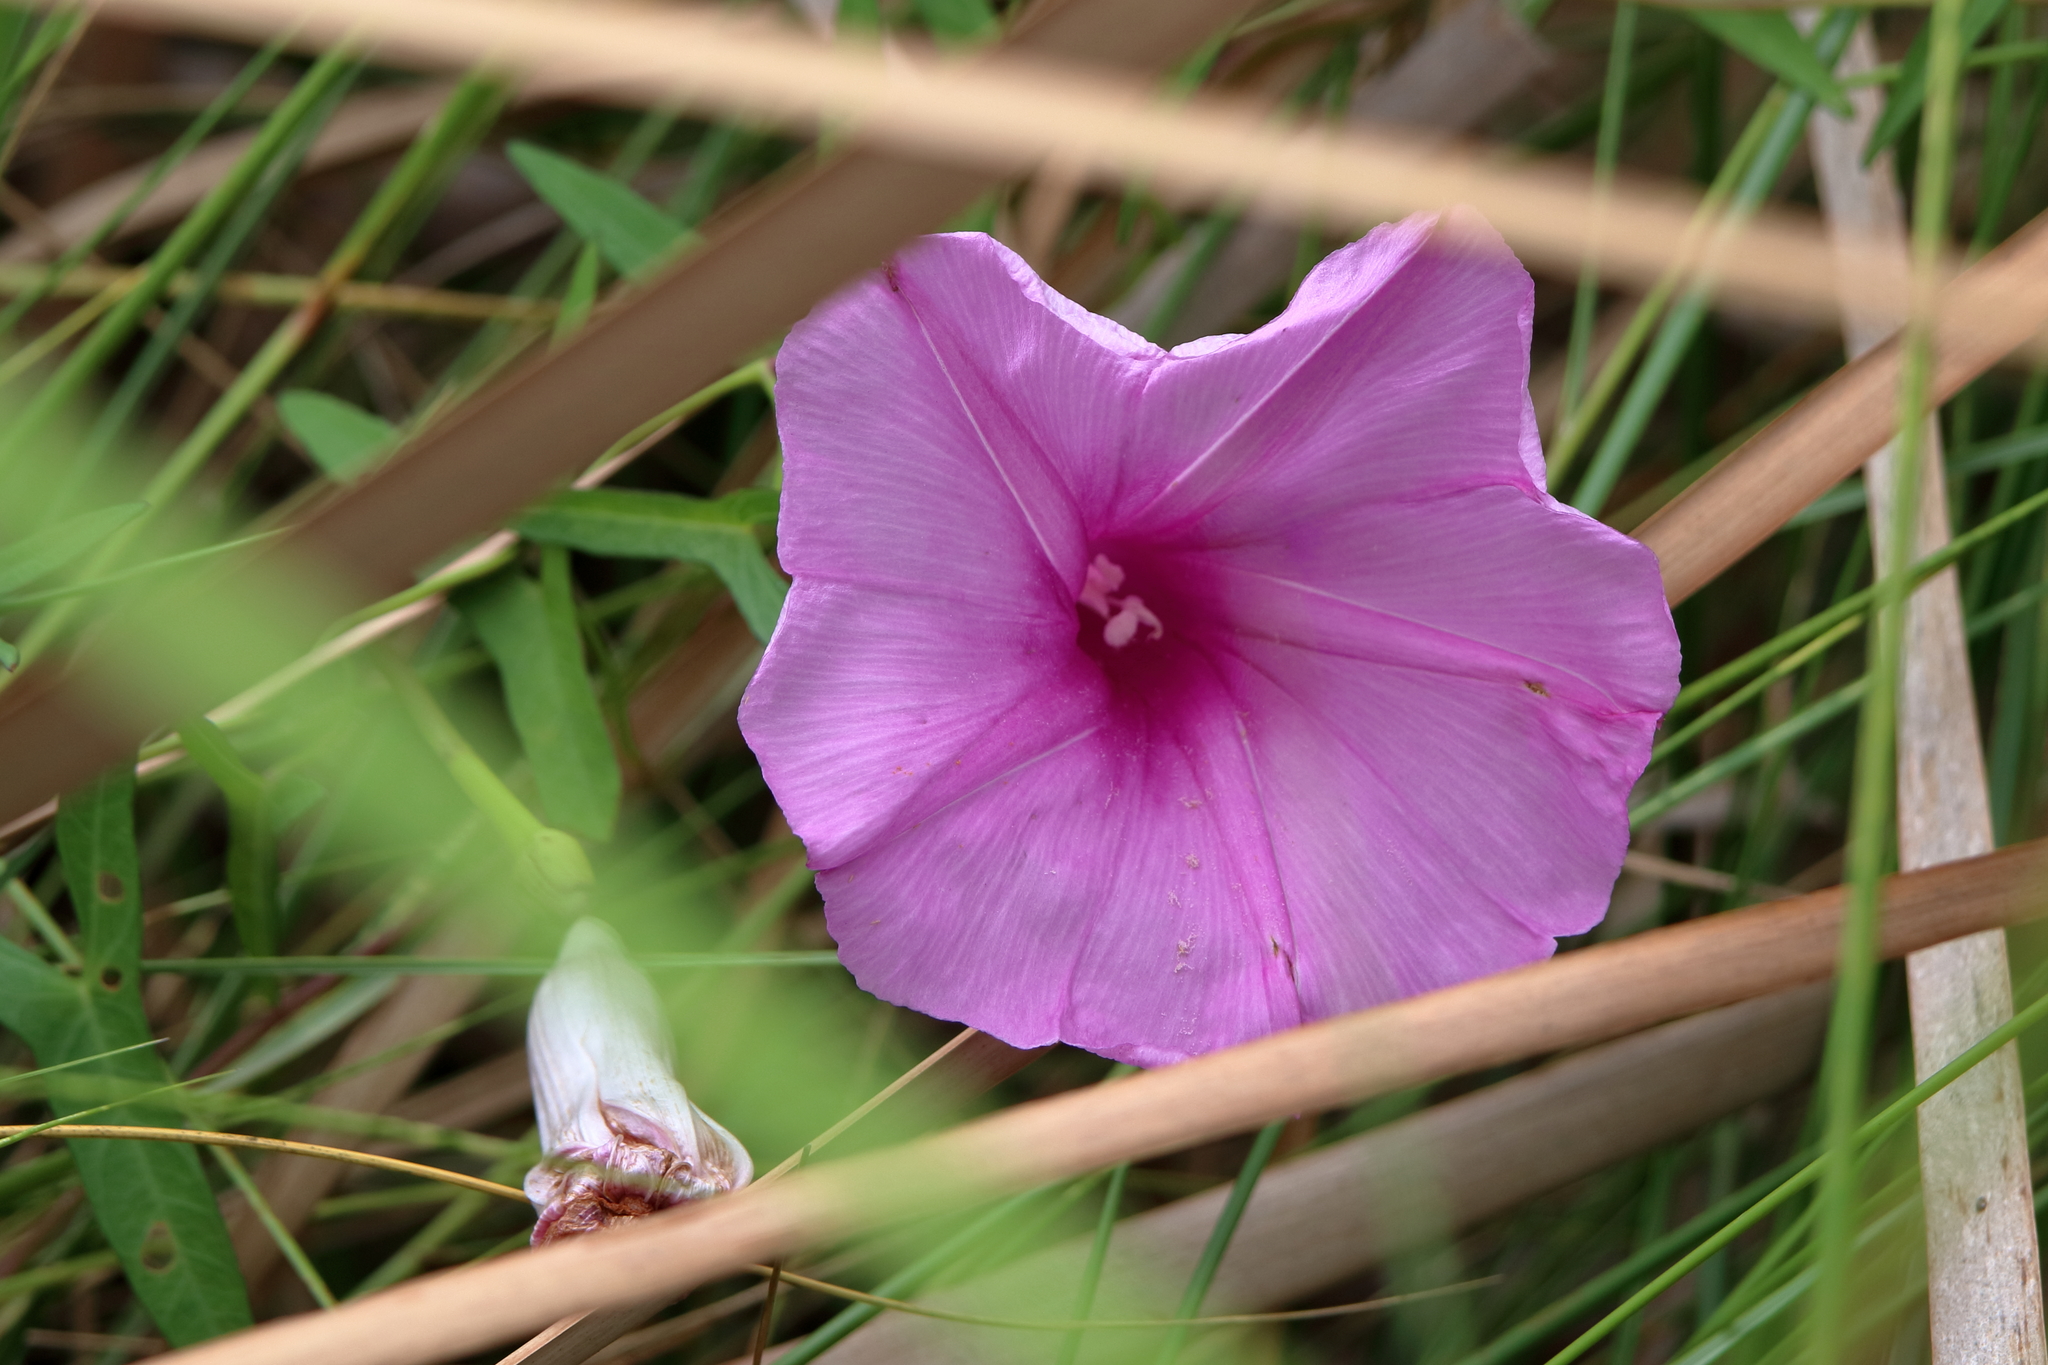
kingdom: Plantae
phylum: Tracheophyta
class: Magnoliopsida
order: Solanales
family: Convolvulaceae
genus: Ipomoea
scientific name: Ipomoea sagittata
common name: Saltmarsh morning glory
